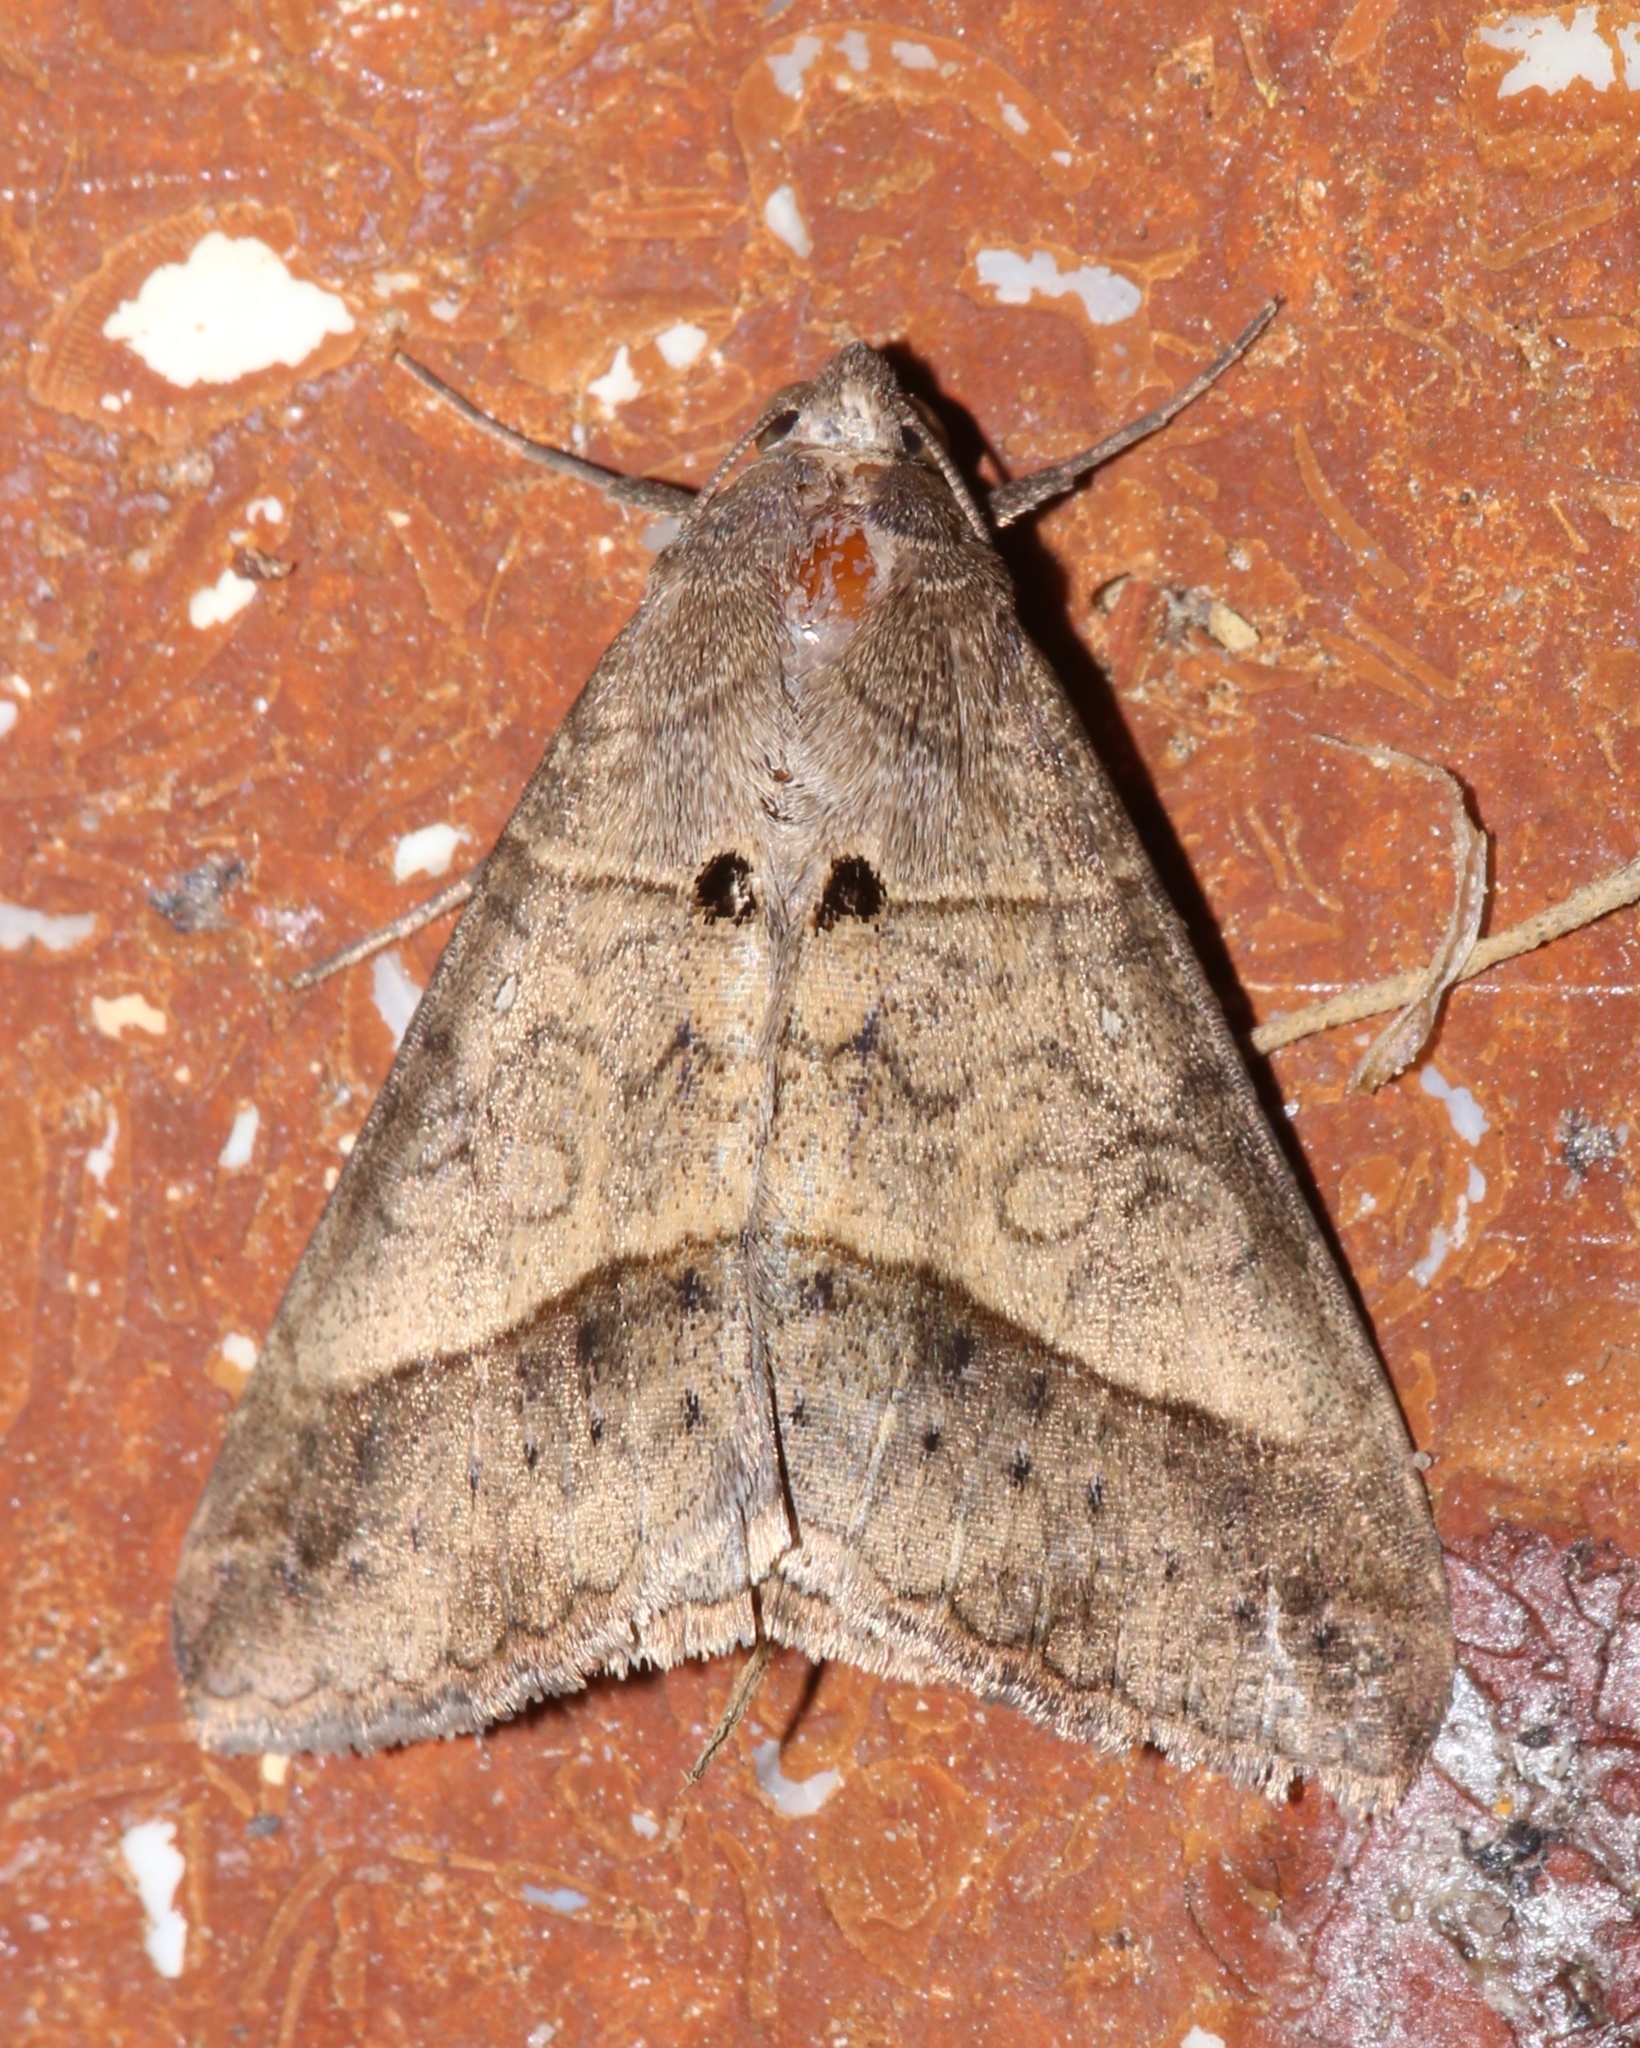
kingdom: Animalia
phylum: Arthropoda
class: Insecta
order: Lepidoptera
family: Erebidae
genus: Mocis
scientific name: Mocis latipes
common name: Striped grass looper
